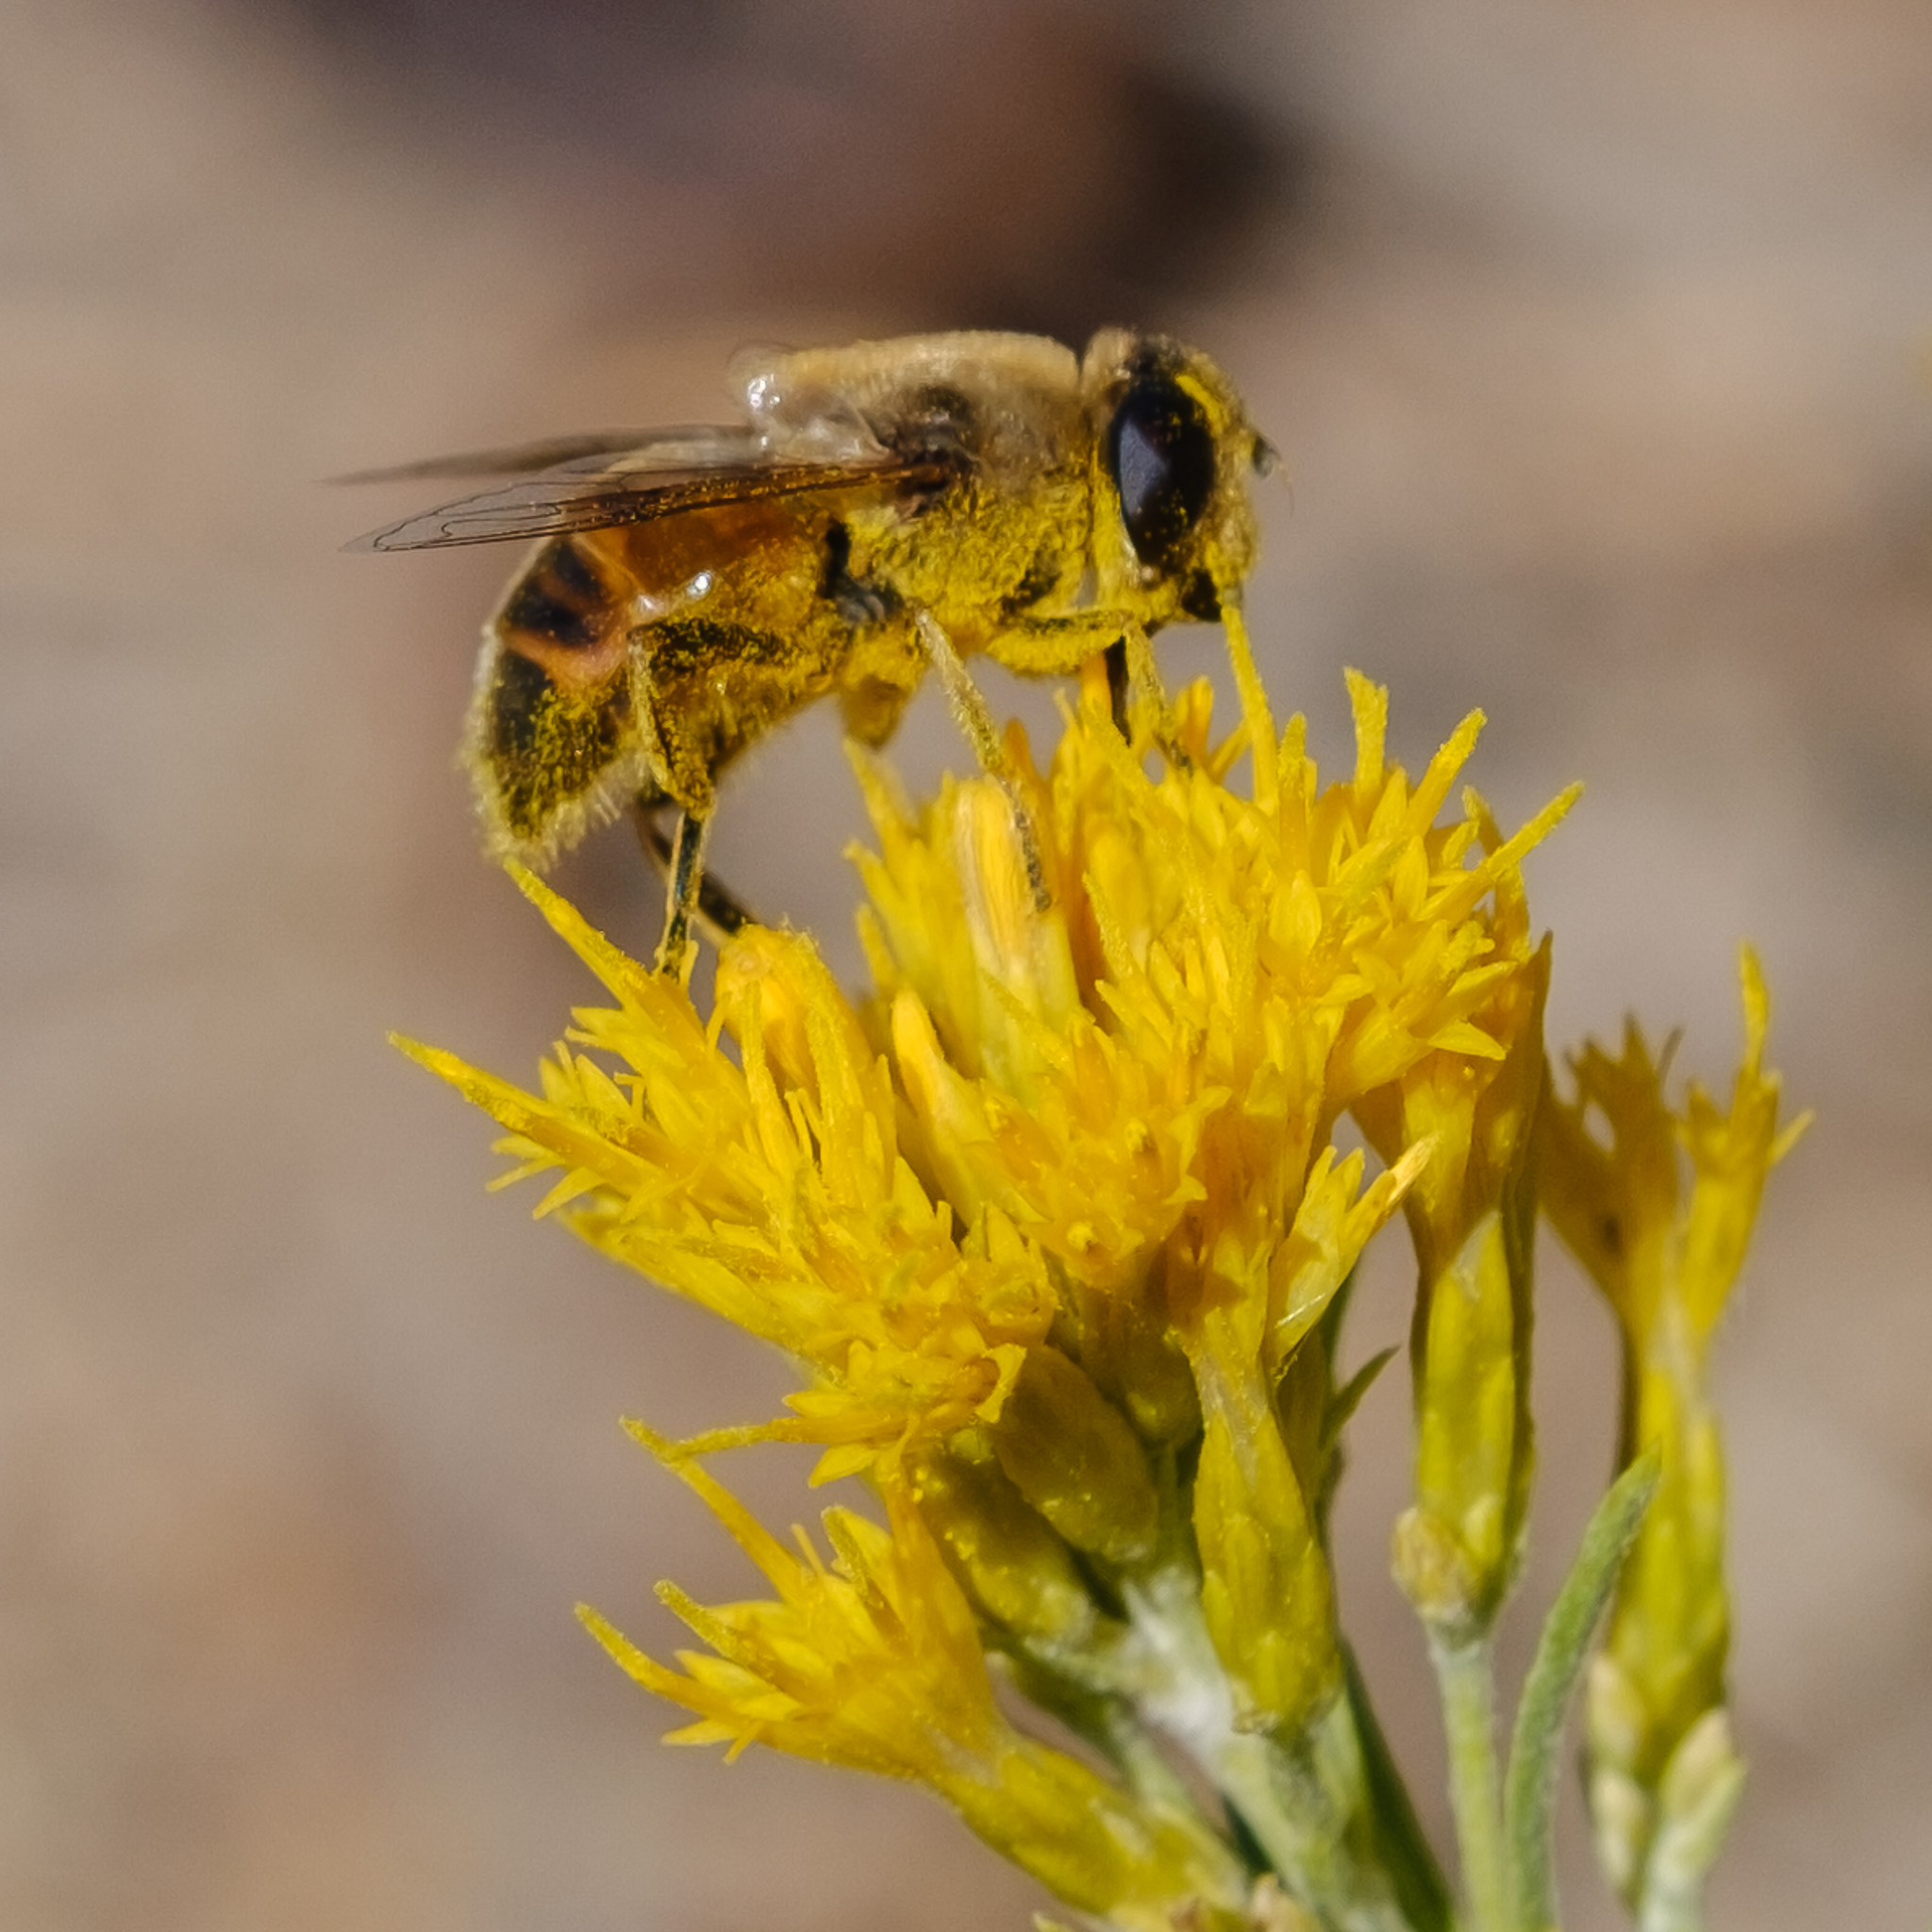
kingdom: Animalia
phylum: Arthropoda
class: Insecta
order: Diptera
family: Syrphidae
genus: Eristalis
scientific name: Eristalis tenax
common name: Drone fly
